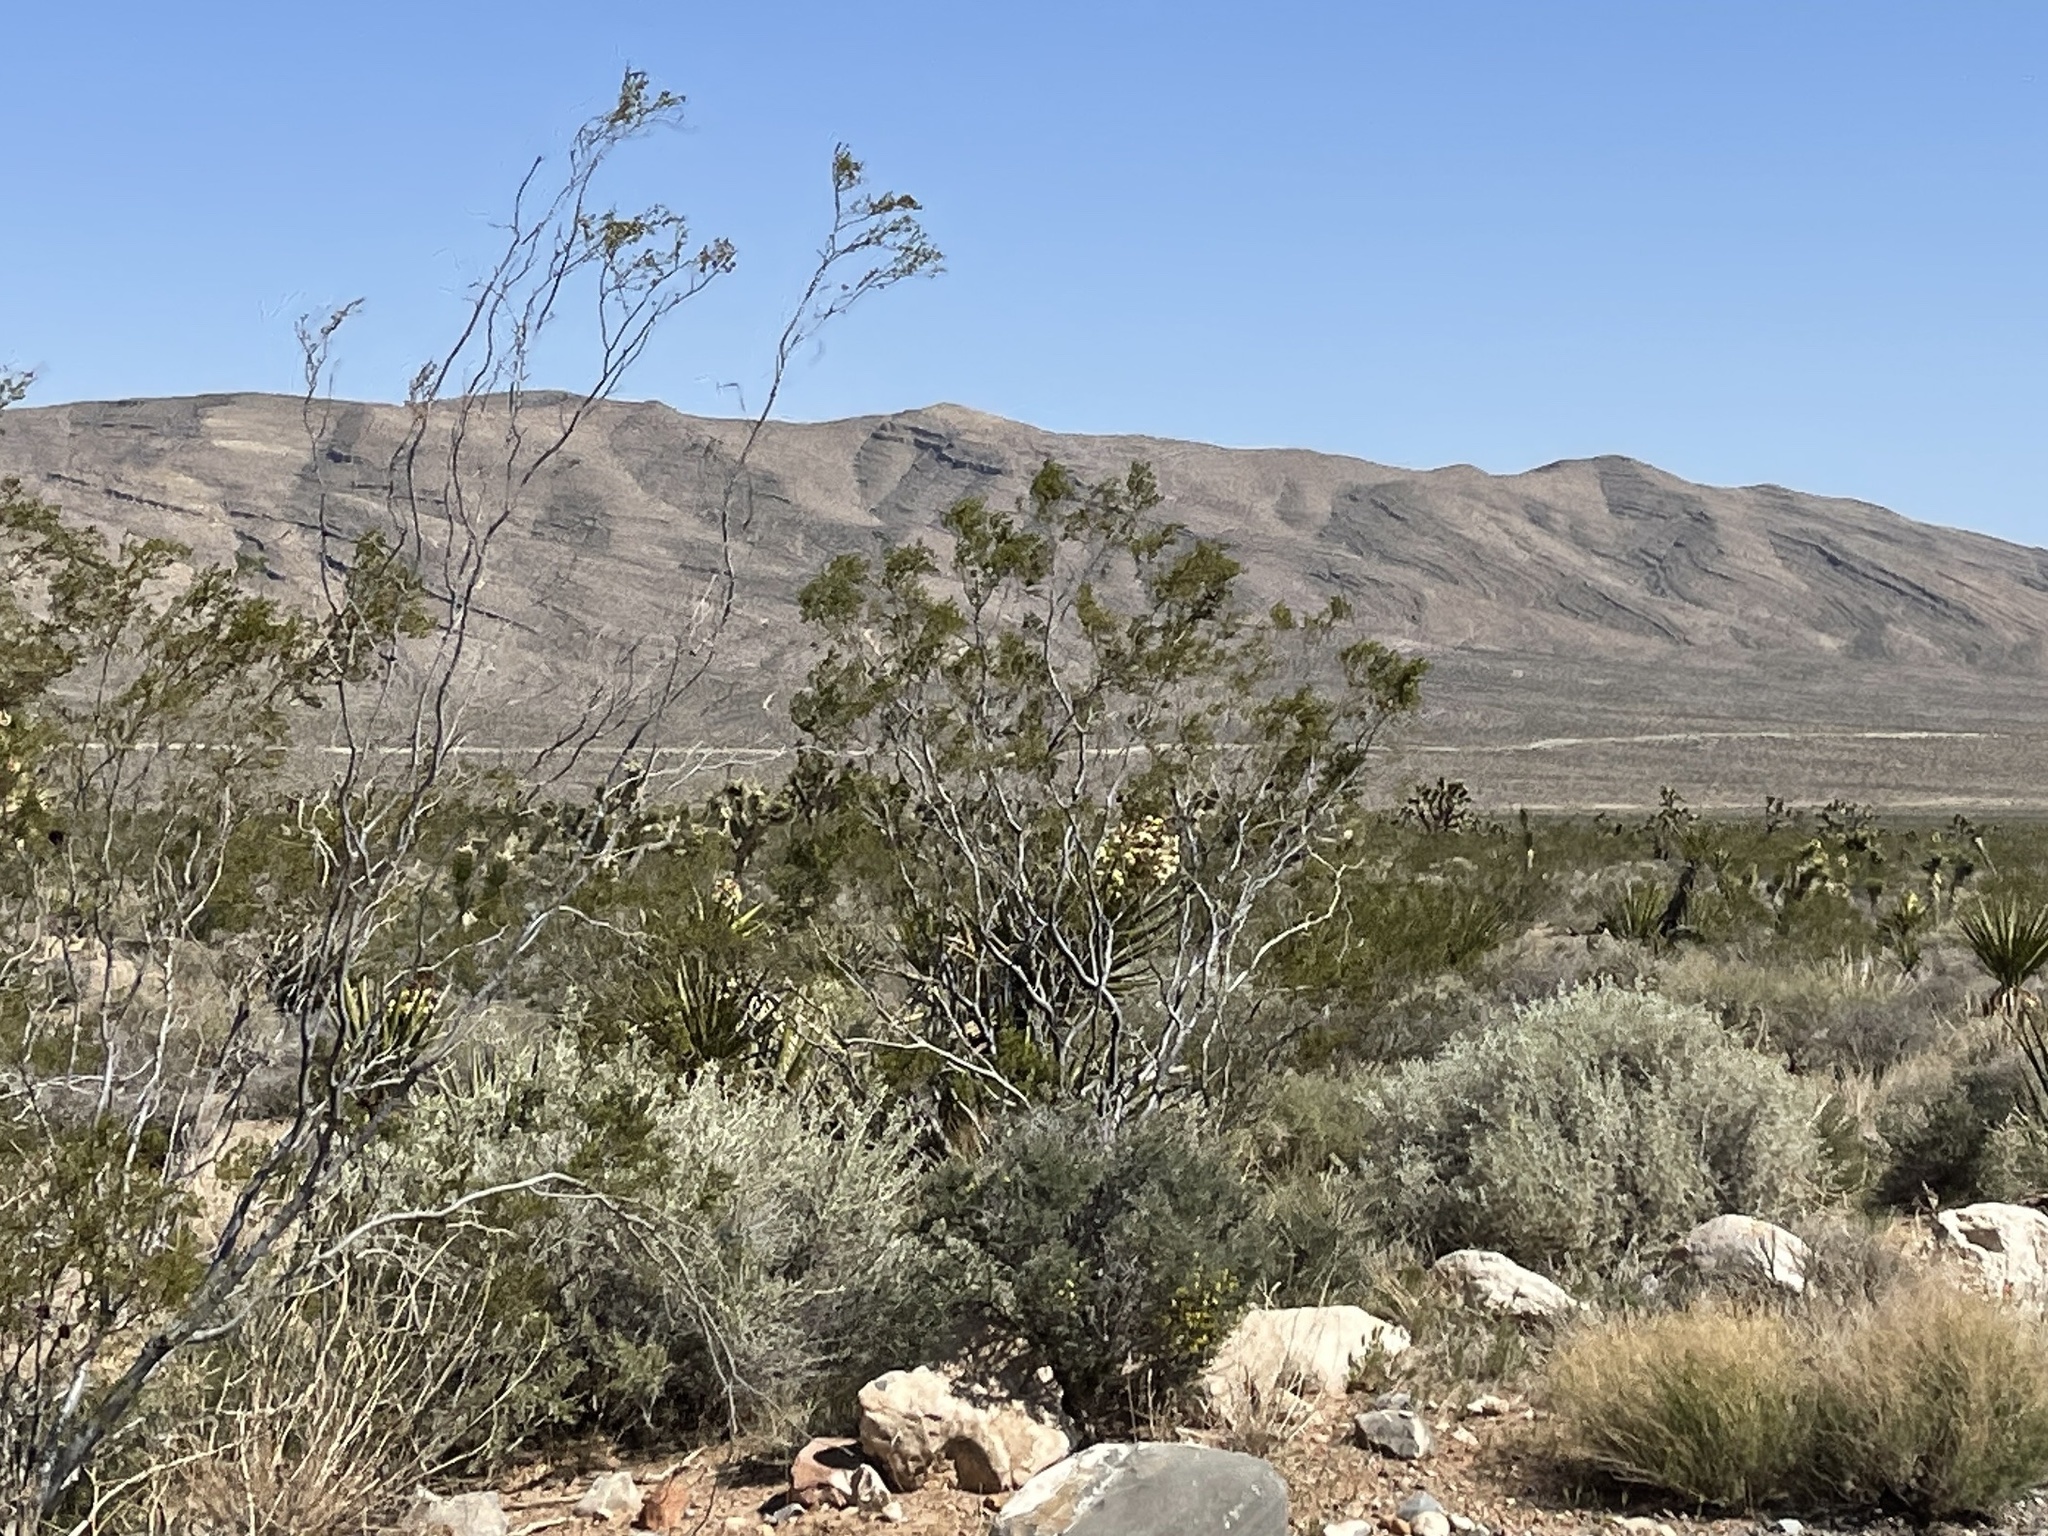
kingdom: Plantae
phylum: Tracheophyta
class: Magnoliopsida
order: Zygophyllales
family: Zygophyllaceae
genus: Larrea
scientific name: Larrea tridentata
